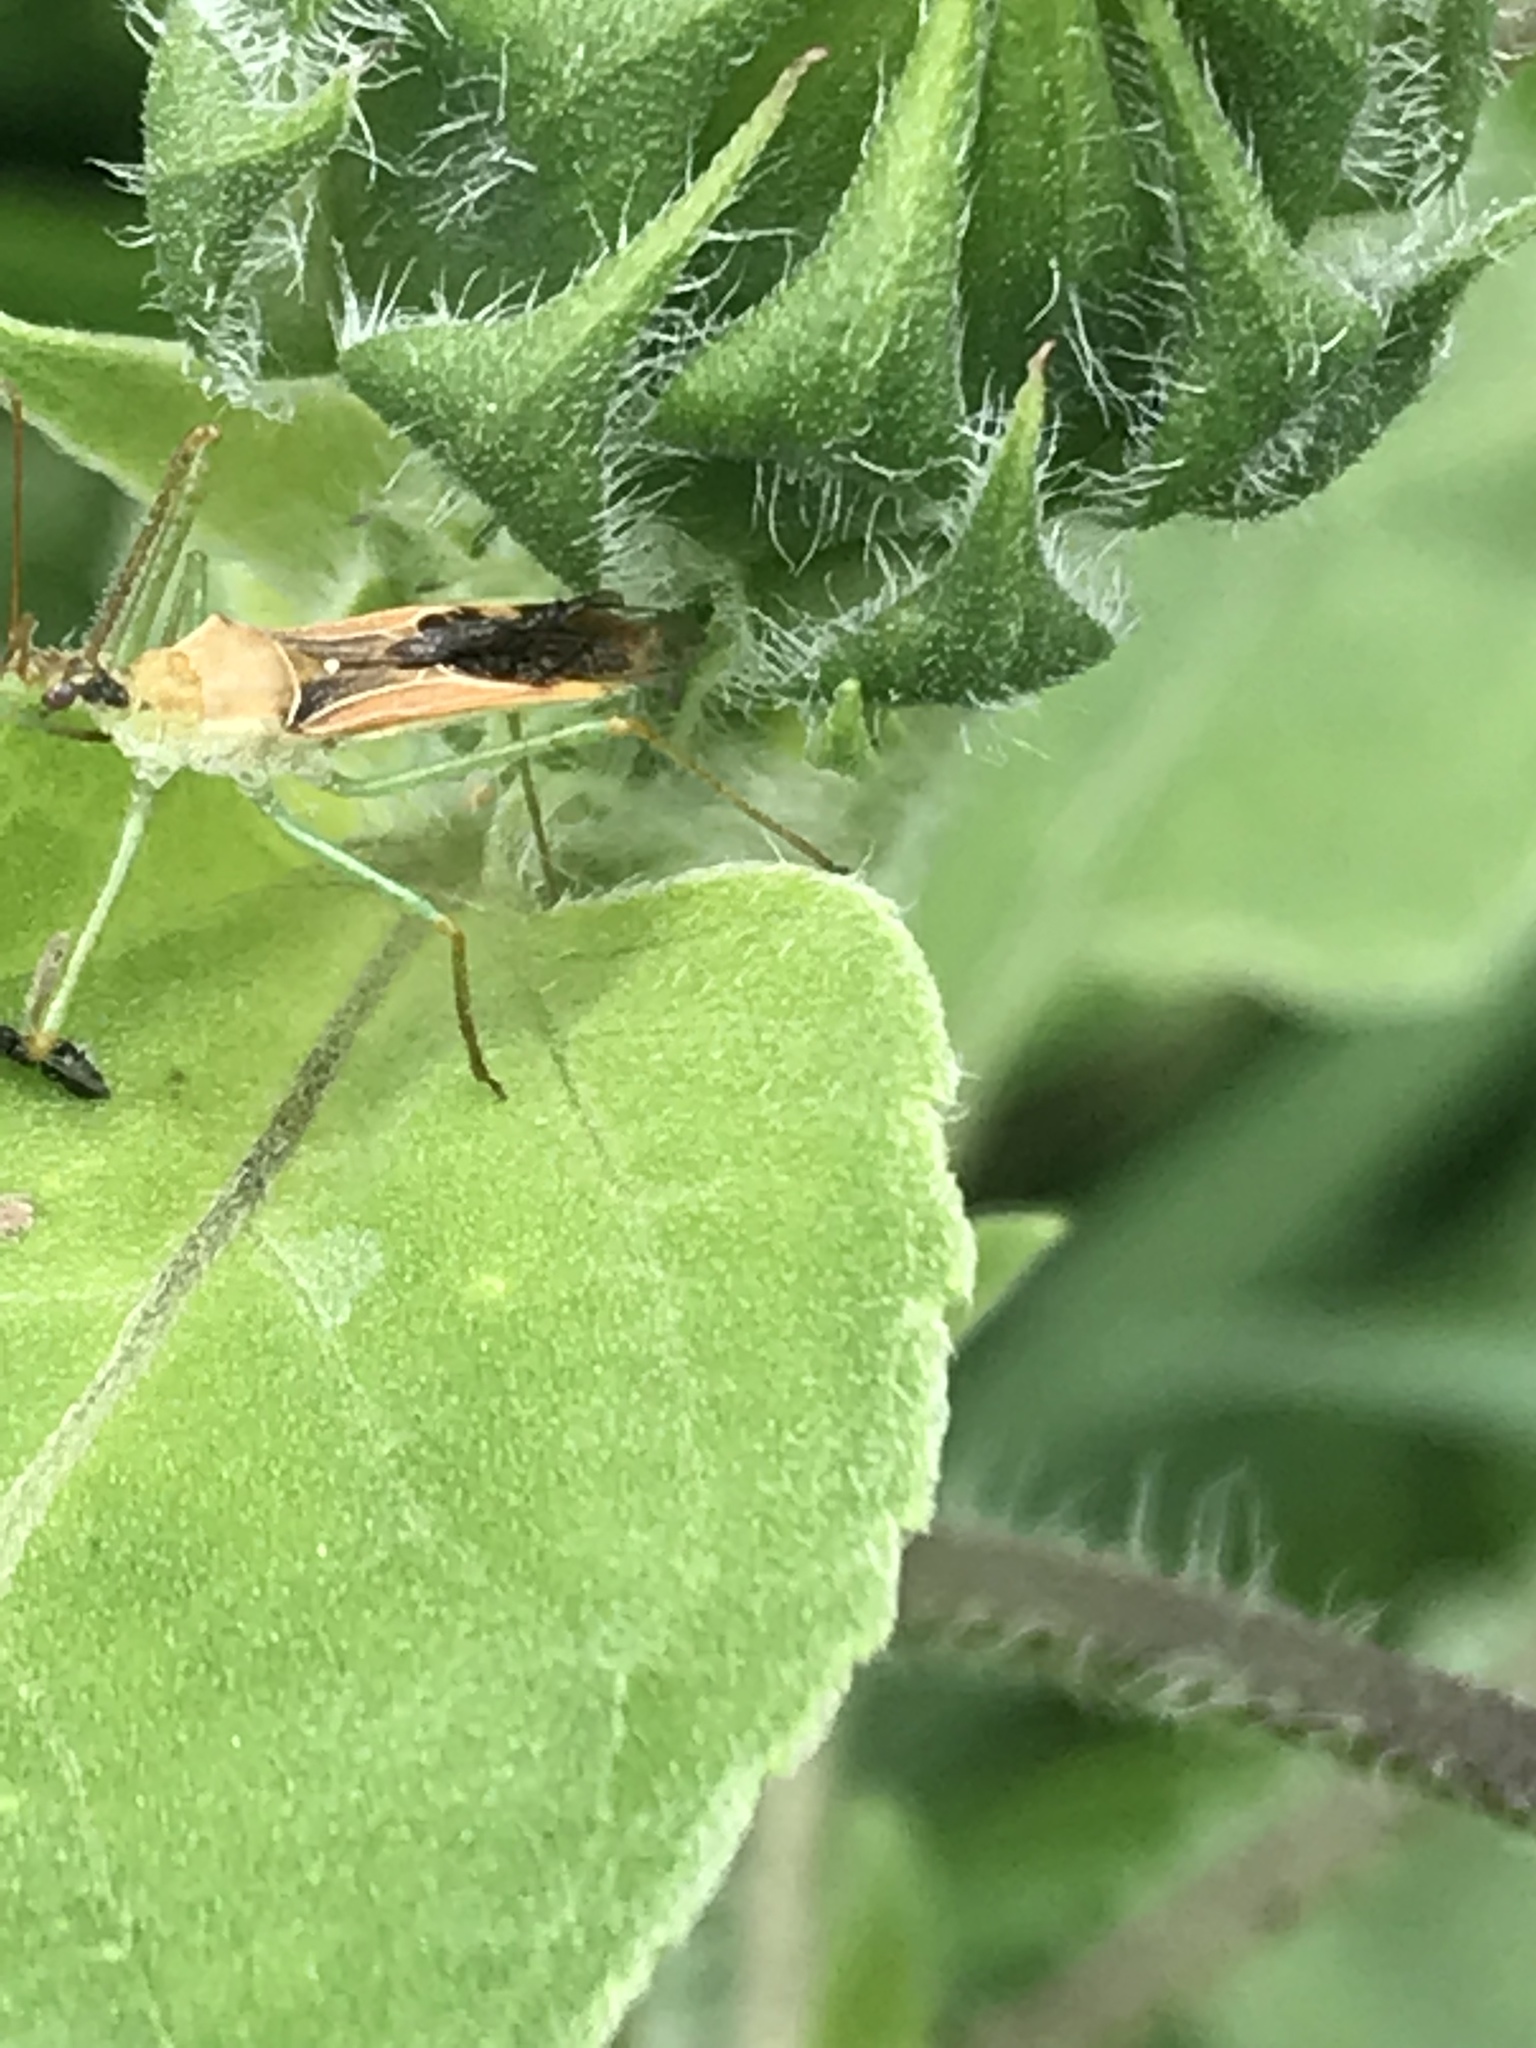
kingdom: Animalia
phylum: Arthropoda
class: Insecta
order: Hemiptera
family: Reduviidae
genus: Zelus
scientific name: Zelus renardii
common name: Assassin bug
